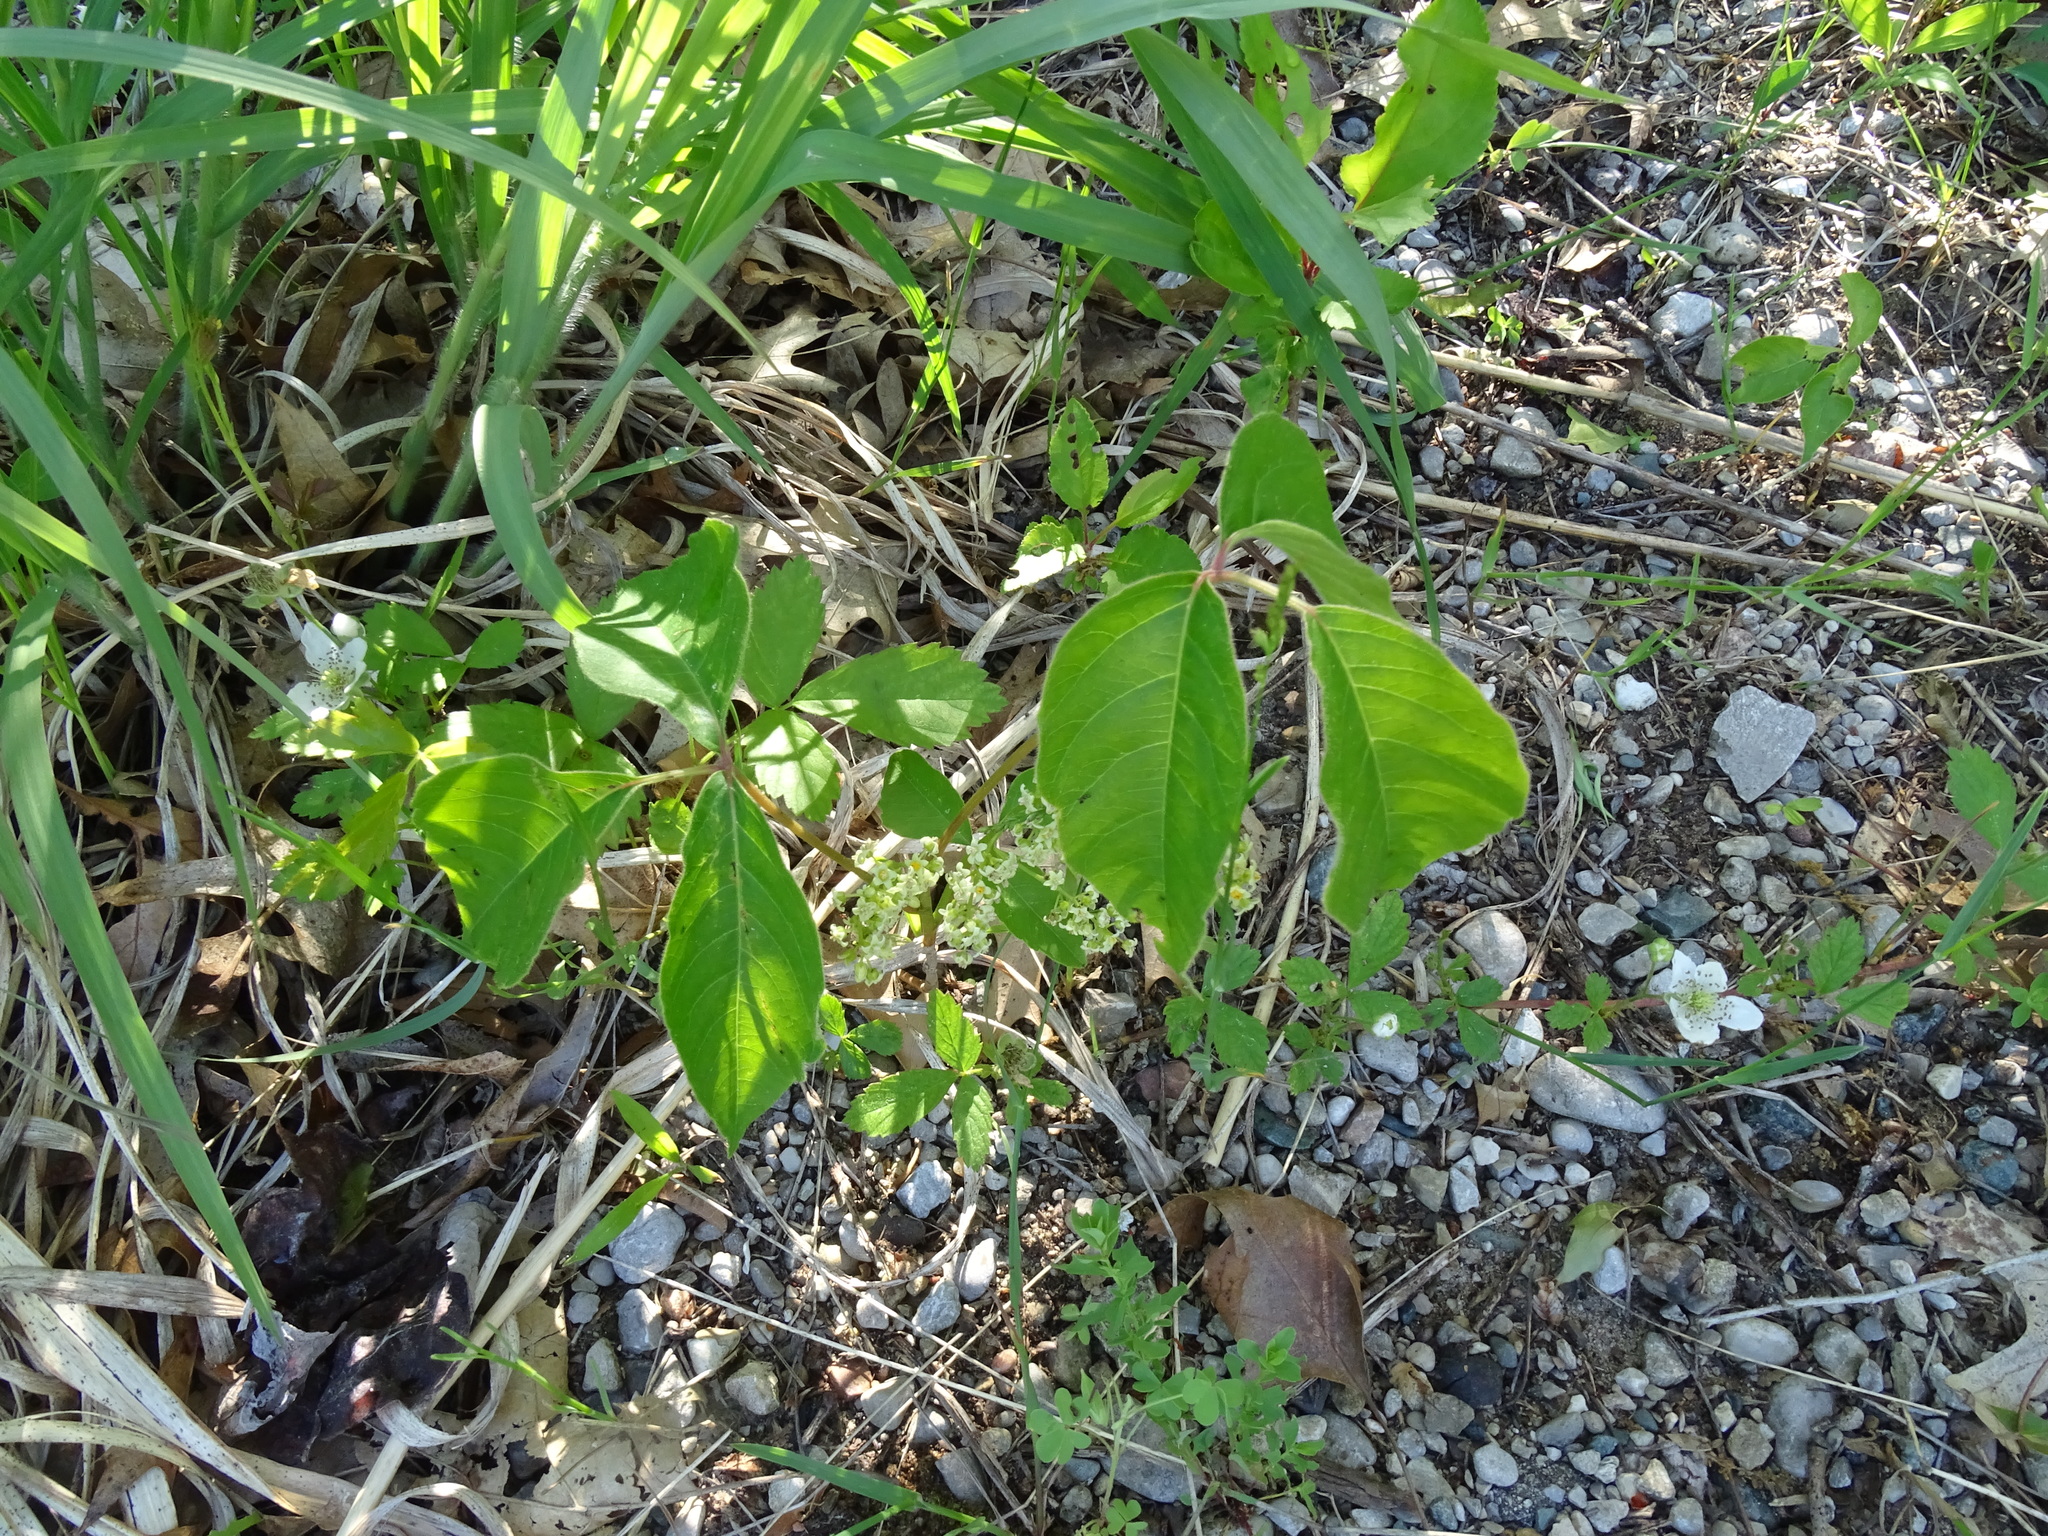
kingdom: Plantae
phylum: Tracheophyta
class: Magnoliopsida
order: Sapindales
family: Anacardiaceae
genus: Toxicodendron
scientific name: Toxicodendron rydbergii
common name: Rydberg's poison-ivy
